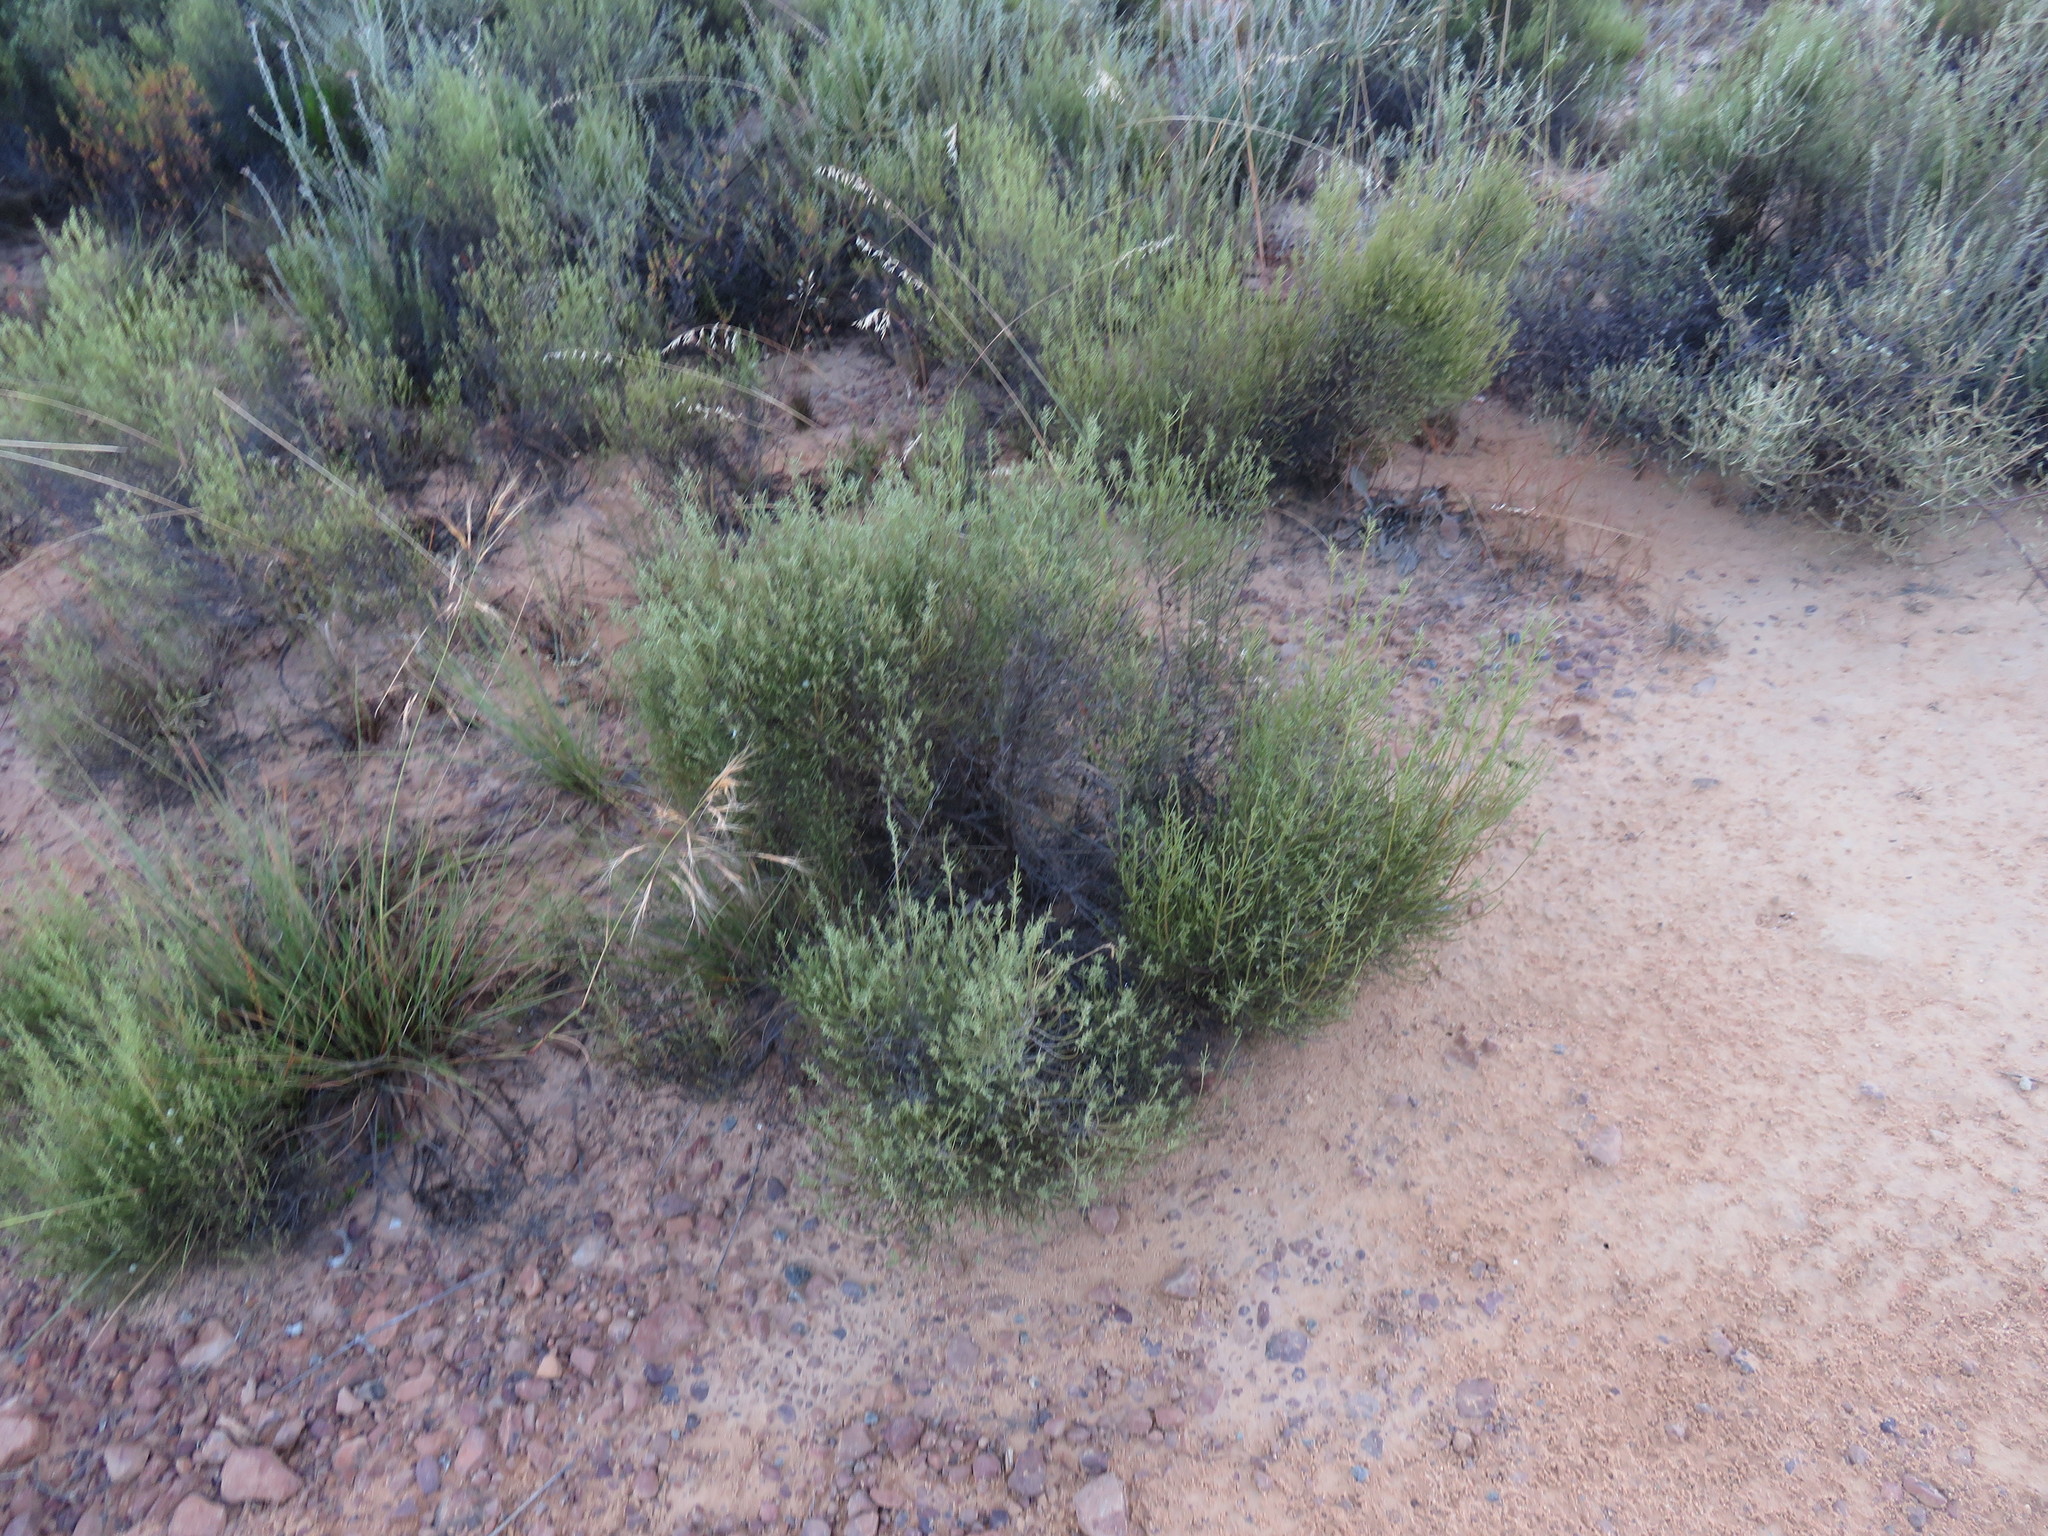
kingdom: Plantae
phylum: Tracheophyta
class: Magnoliopsida
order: Asterales
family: Asteraceae
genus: Dicerothamnus
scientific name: Dicerothamnus rhinocerotis
